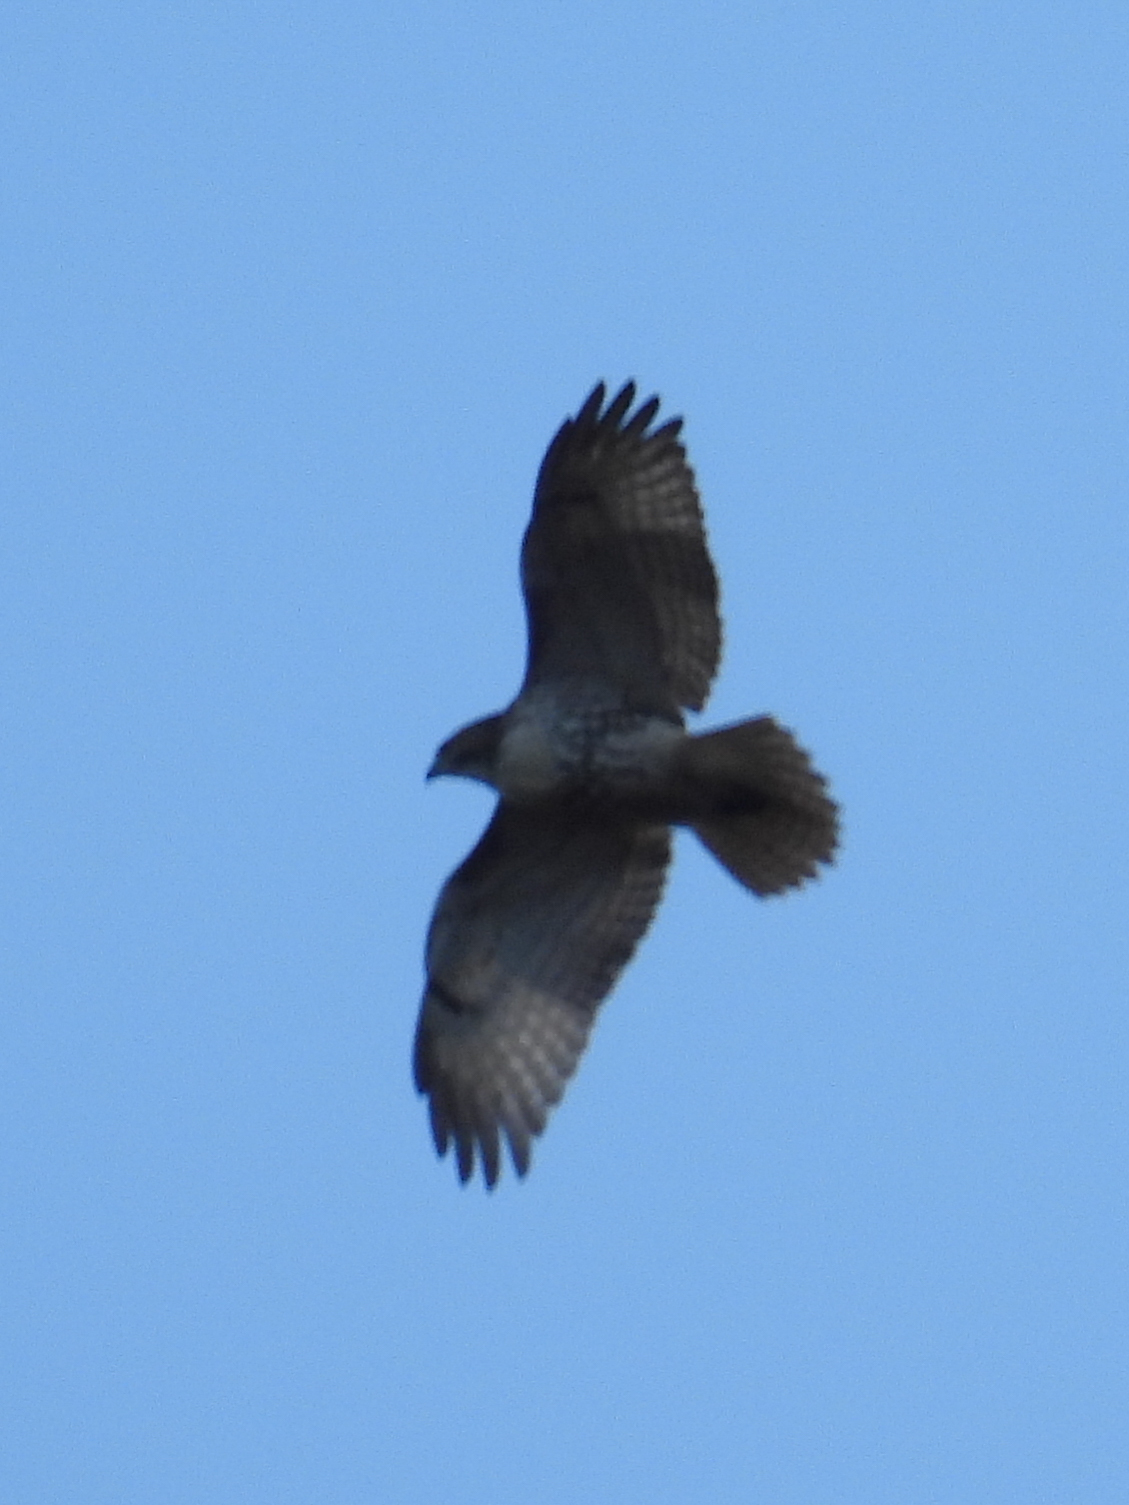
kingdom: Animalia
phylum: Chordata
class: Aves
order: Accipitriformes
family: Accipitridae
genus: Buteo
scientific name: Buteo jamaicensis
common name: Red-tailed hawk
